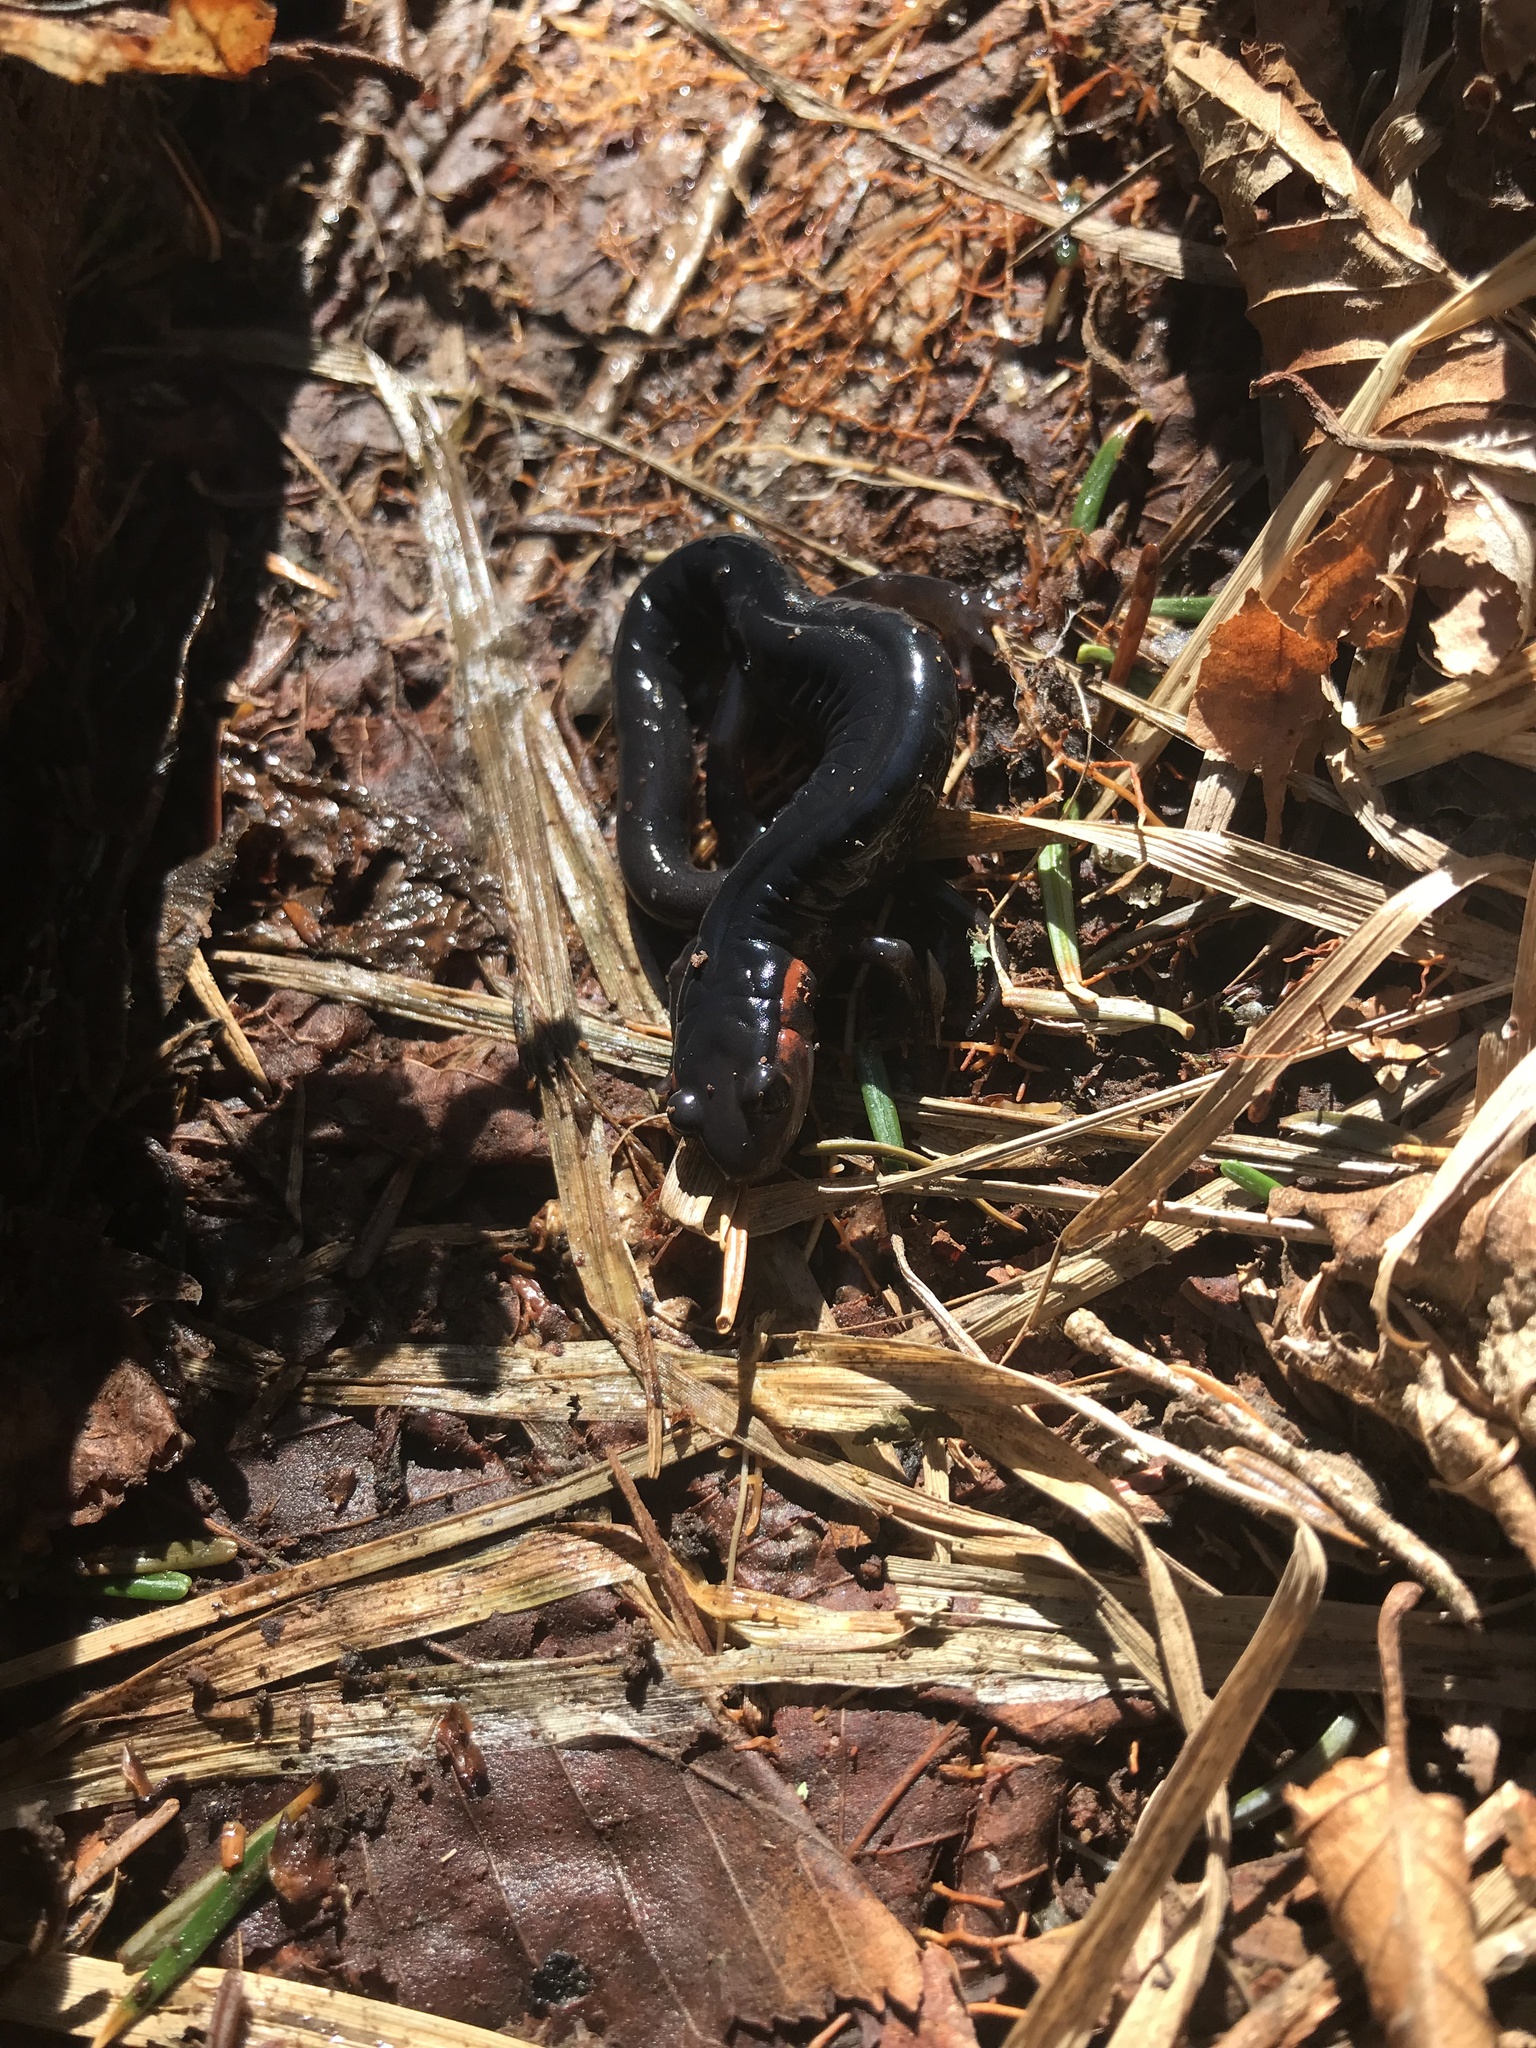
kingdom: Animalia
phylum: Chordata
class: Amphibia
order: Caudata
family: Plethodontidae
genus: Plethodon
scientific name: Plethodon jordani
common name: Red-cheeked salamander
